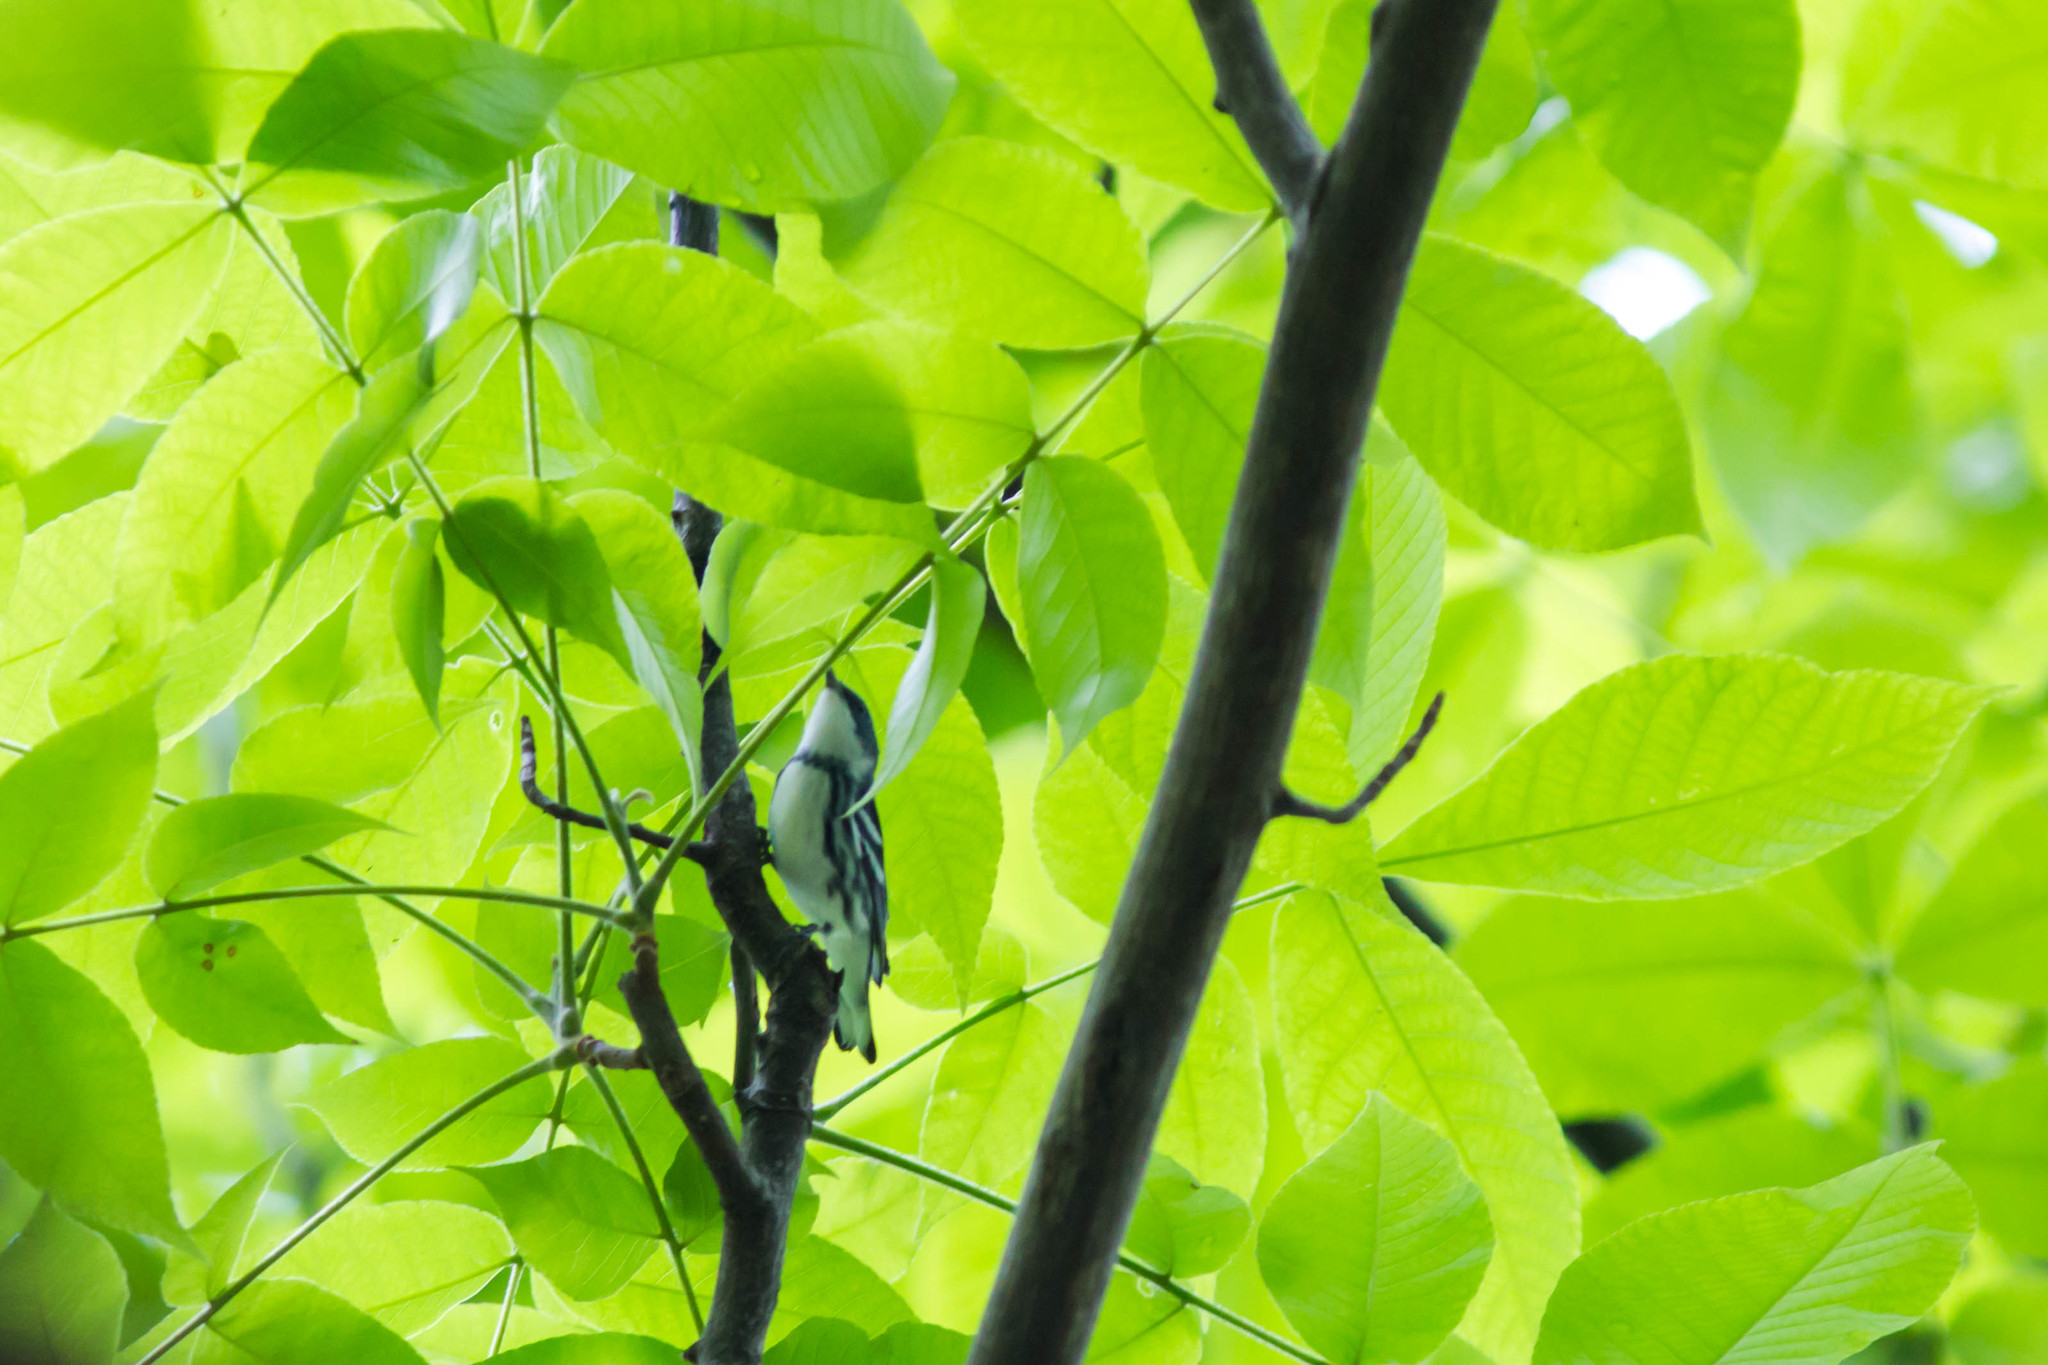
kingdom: Animalia
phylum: Chordata
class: Aves
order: Passeriformes
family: Parulidae
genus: Setophaga
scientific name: Setophaga cerulea
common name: Cerulean warbler
